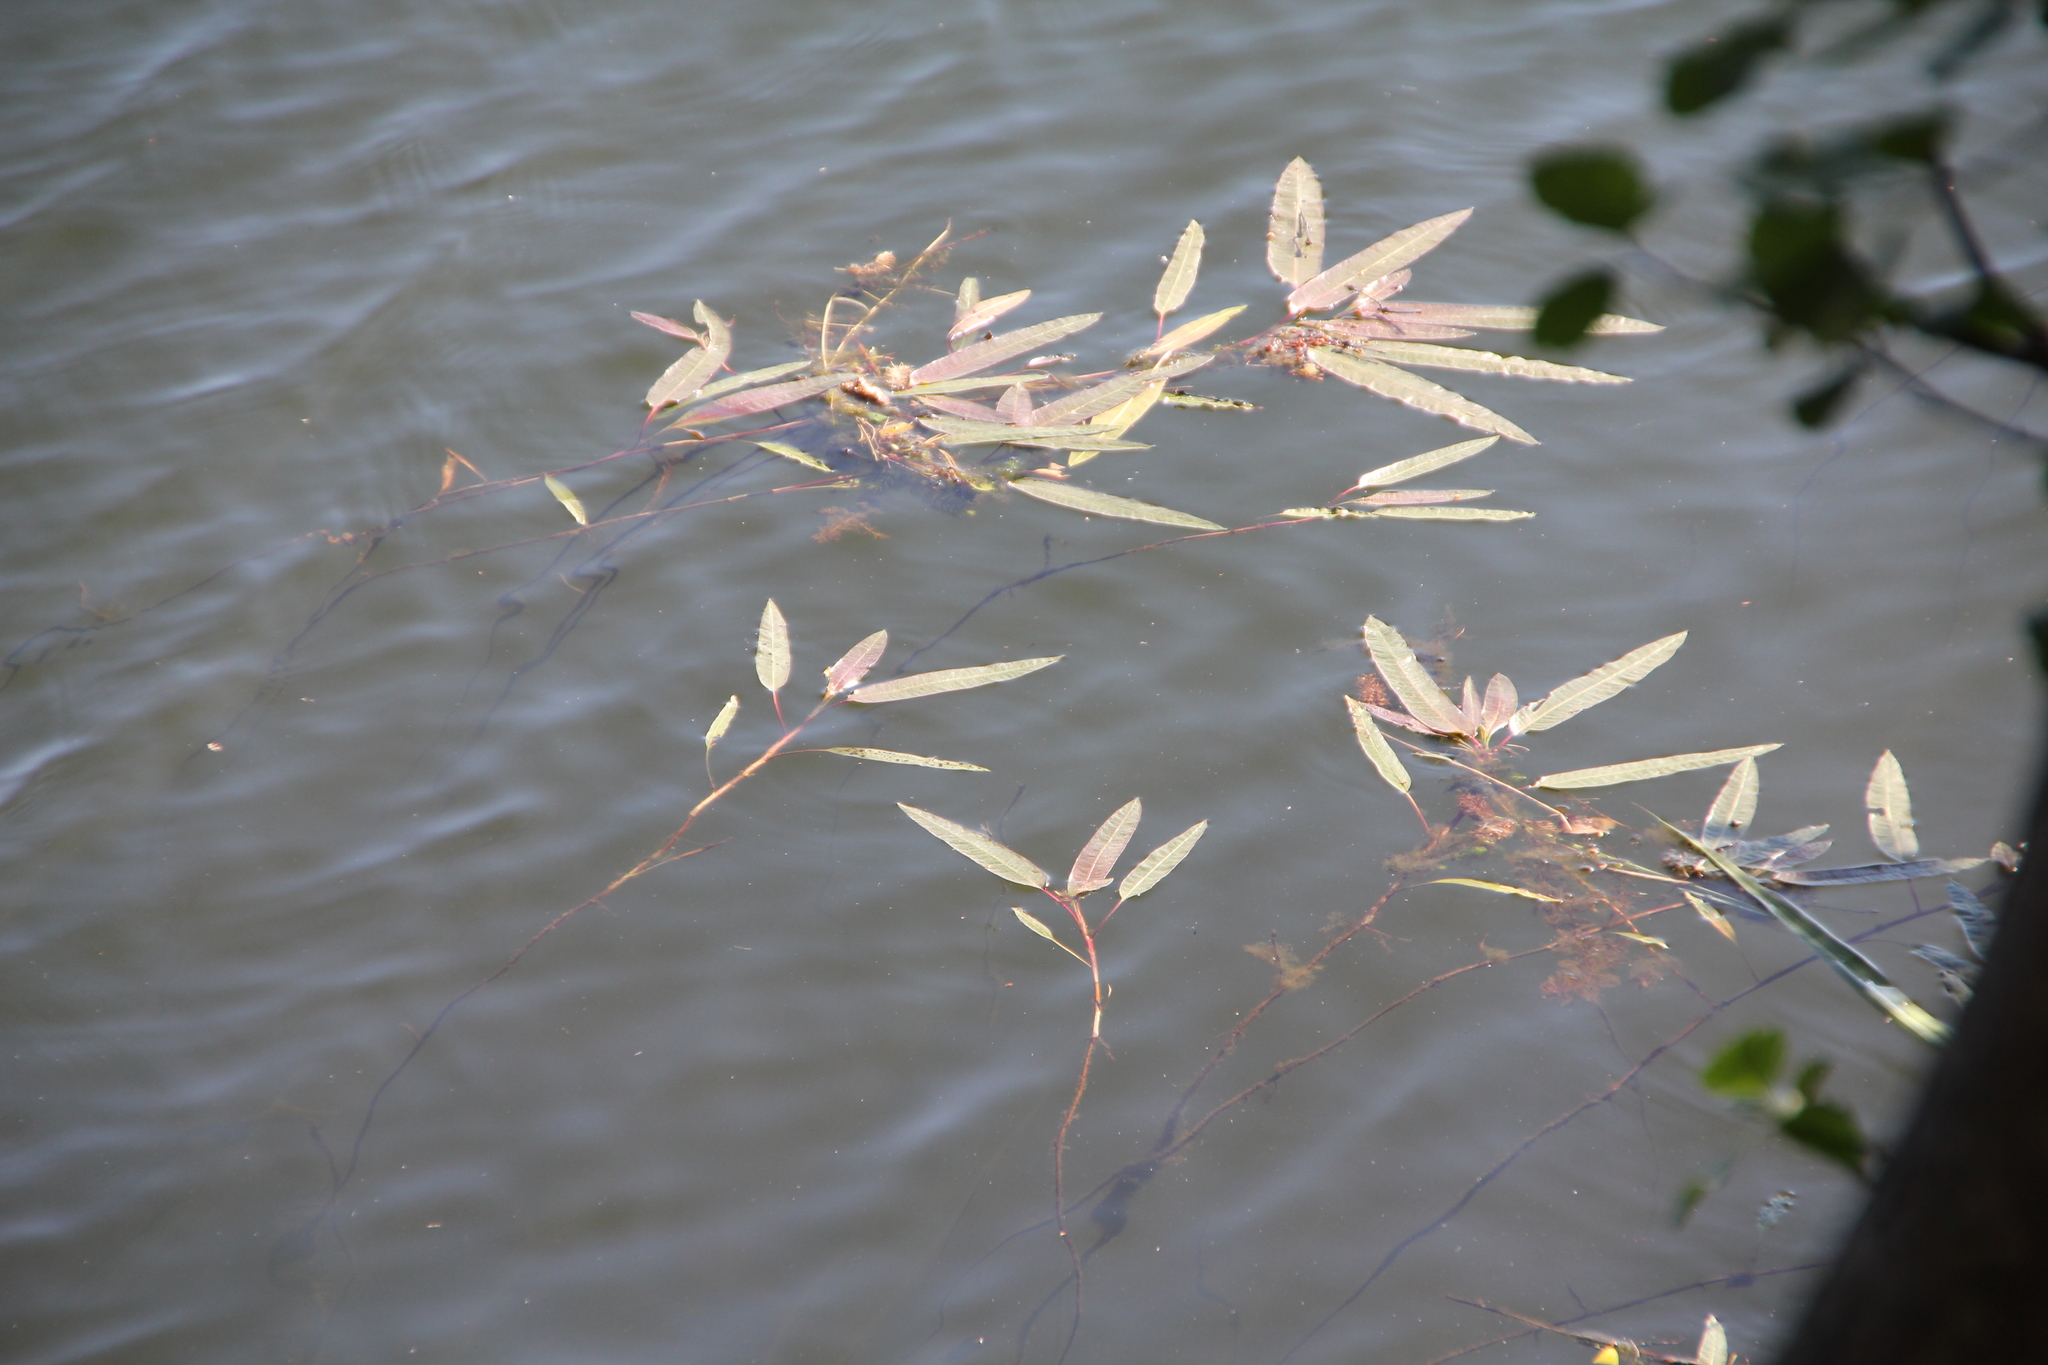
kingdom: Plantae
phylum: Tracheophyta
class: Magnoliopsida
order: Caryophyllales
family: Polygonaceae
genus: Persicaria
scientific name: Persicaria amphibia
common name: Amphibious bistort
